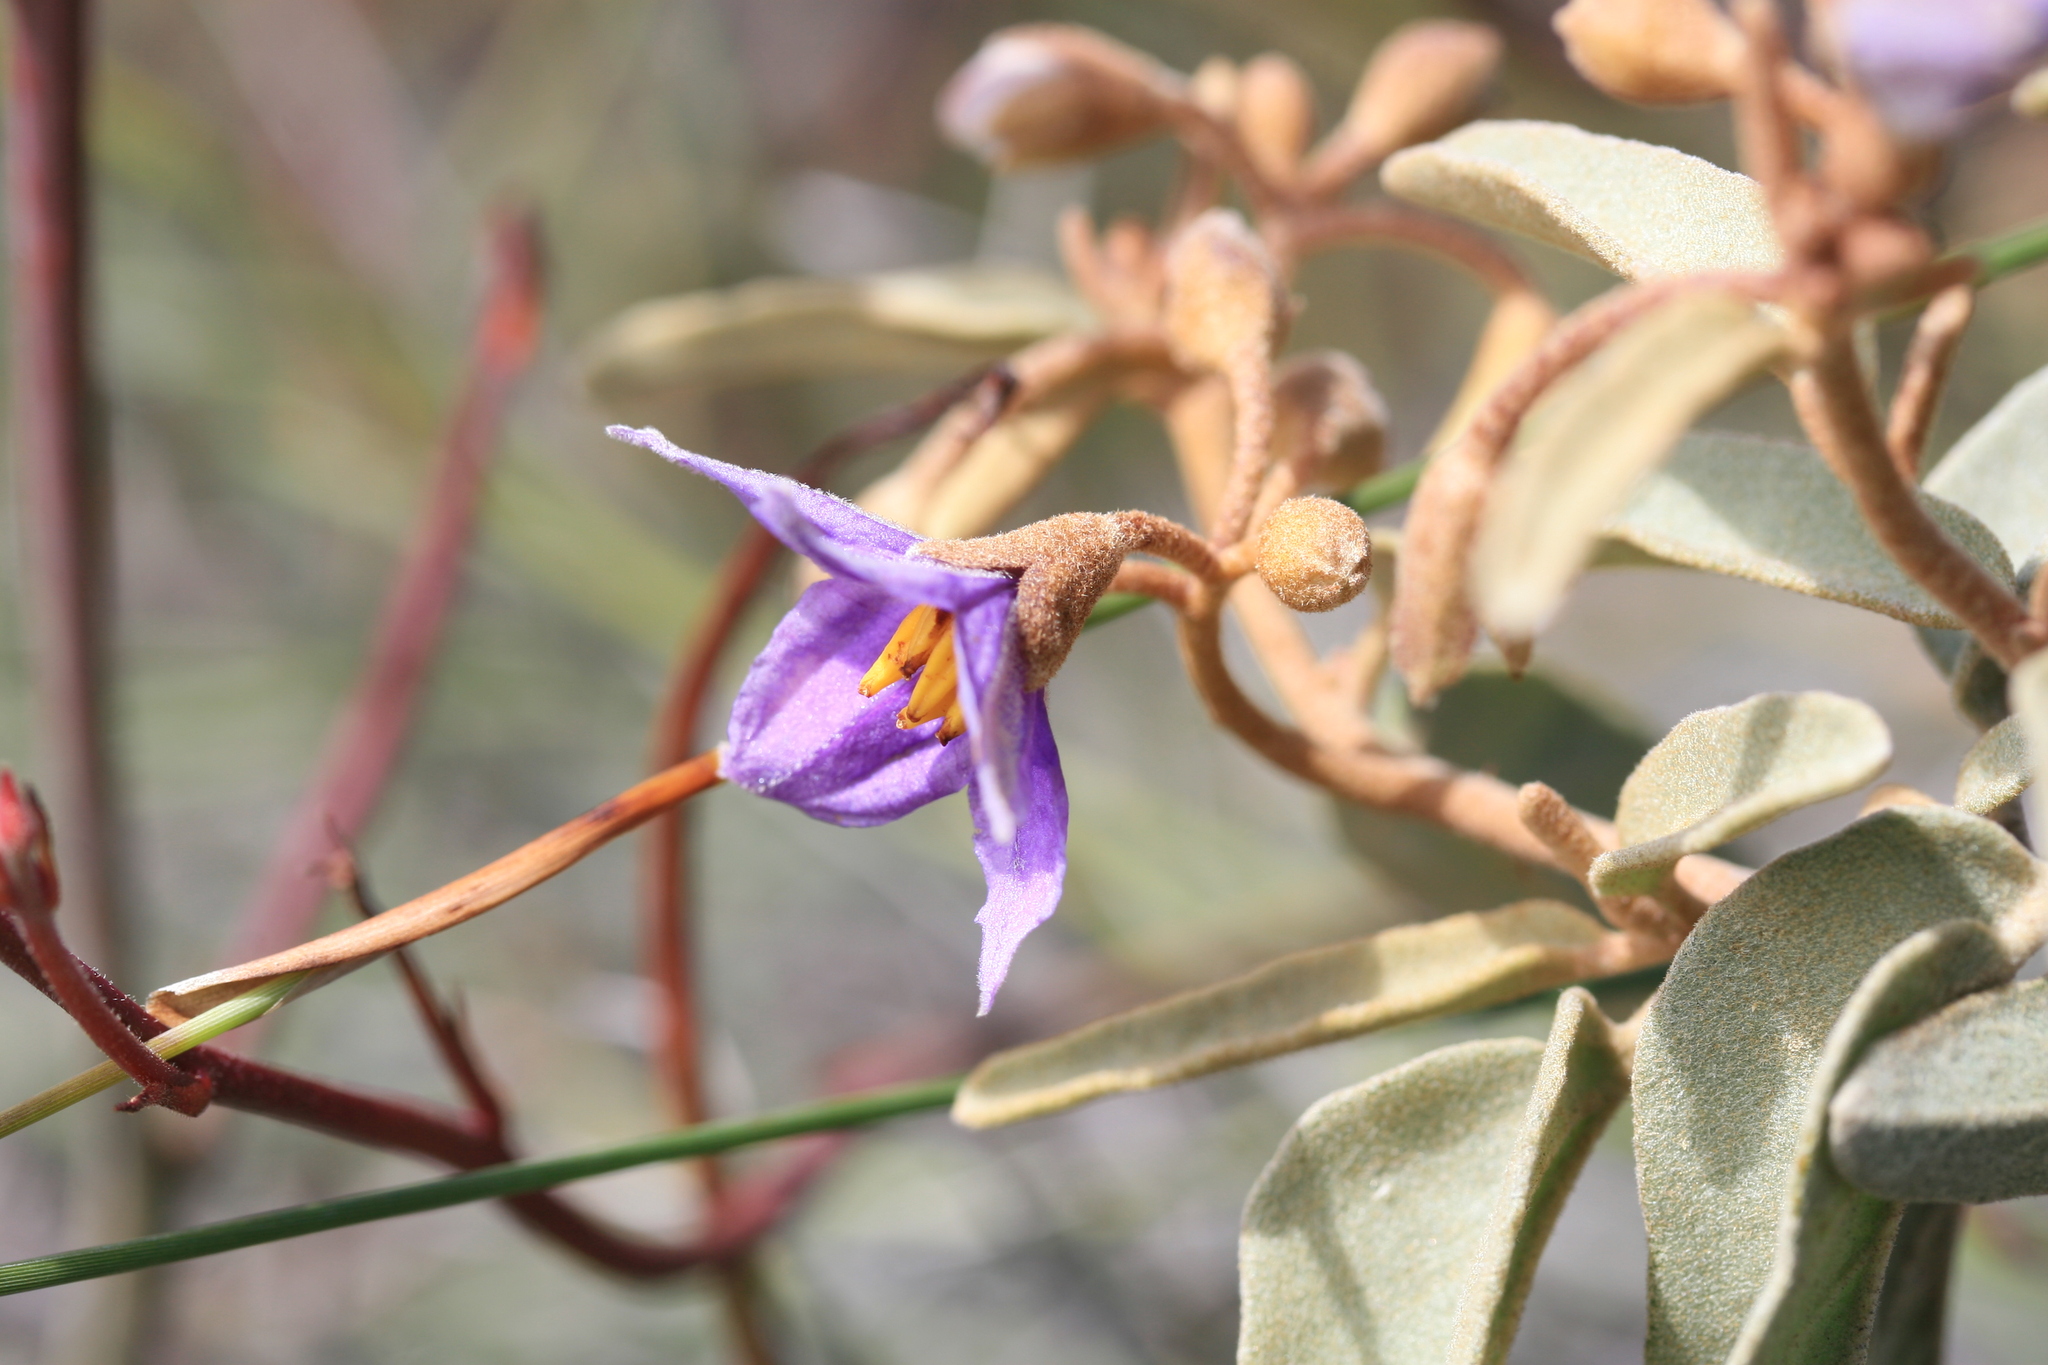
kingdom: Plantae
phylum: Tracheophyta
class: Magnoliopsida
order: Solanales
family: Solanaceae
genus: Solanum
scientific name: Solanum orbiculatum
